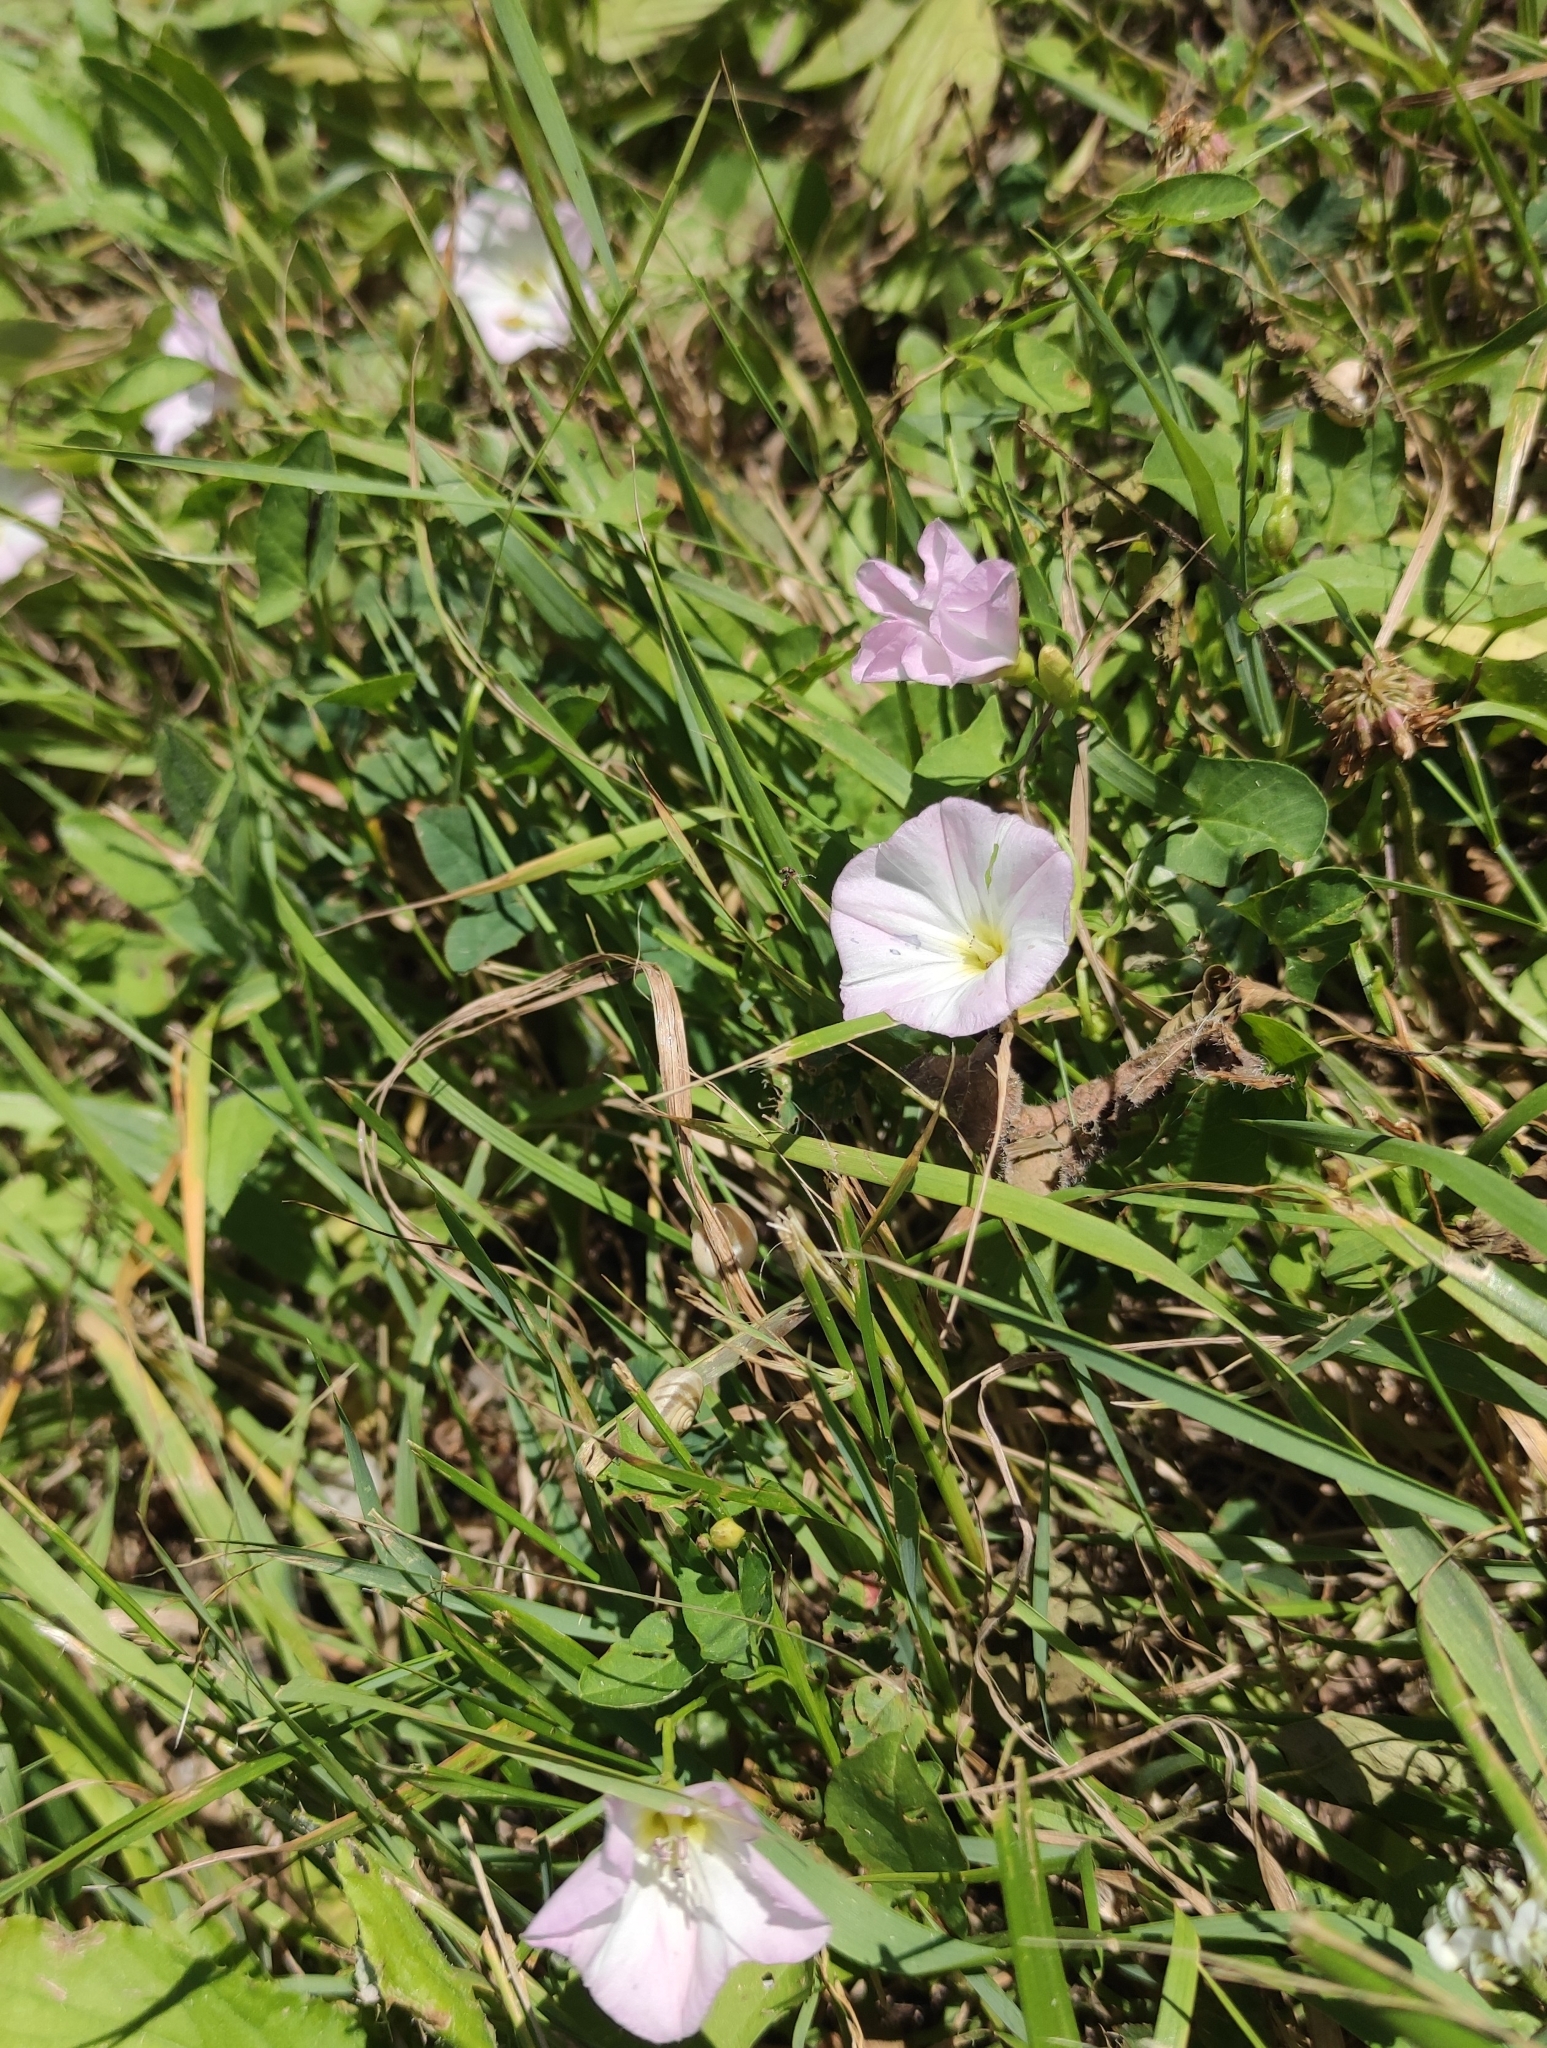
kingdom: Plantae
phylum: Tracheophyta
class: Magnoliopsida
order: Solanales
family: Convolvulaceae
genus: Convolvulus
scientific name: Convolvulus arvensis
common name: Field bindweed
